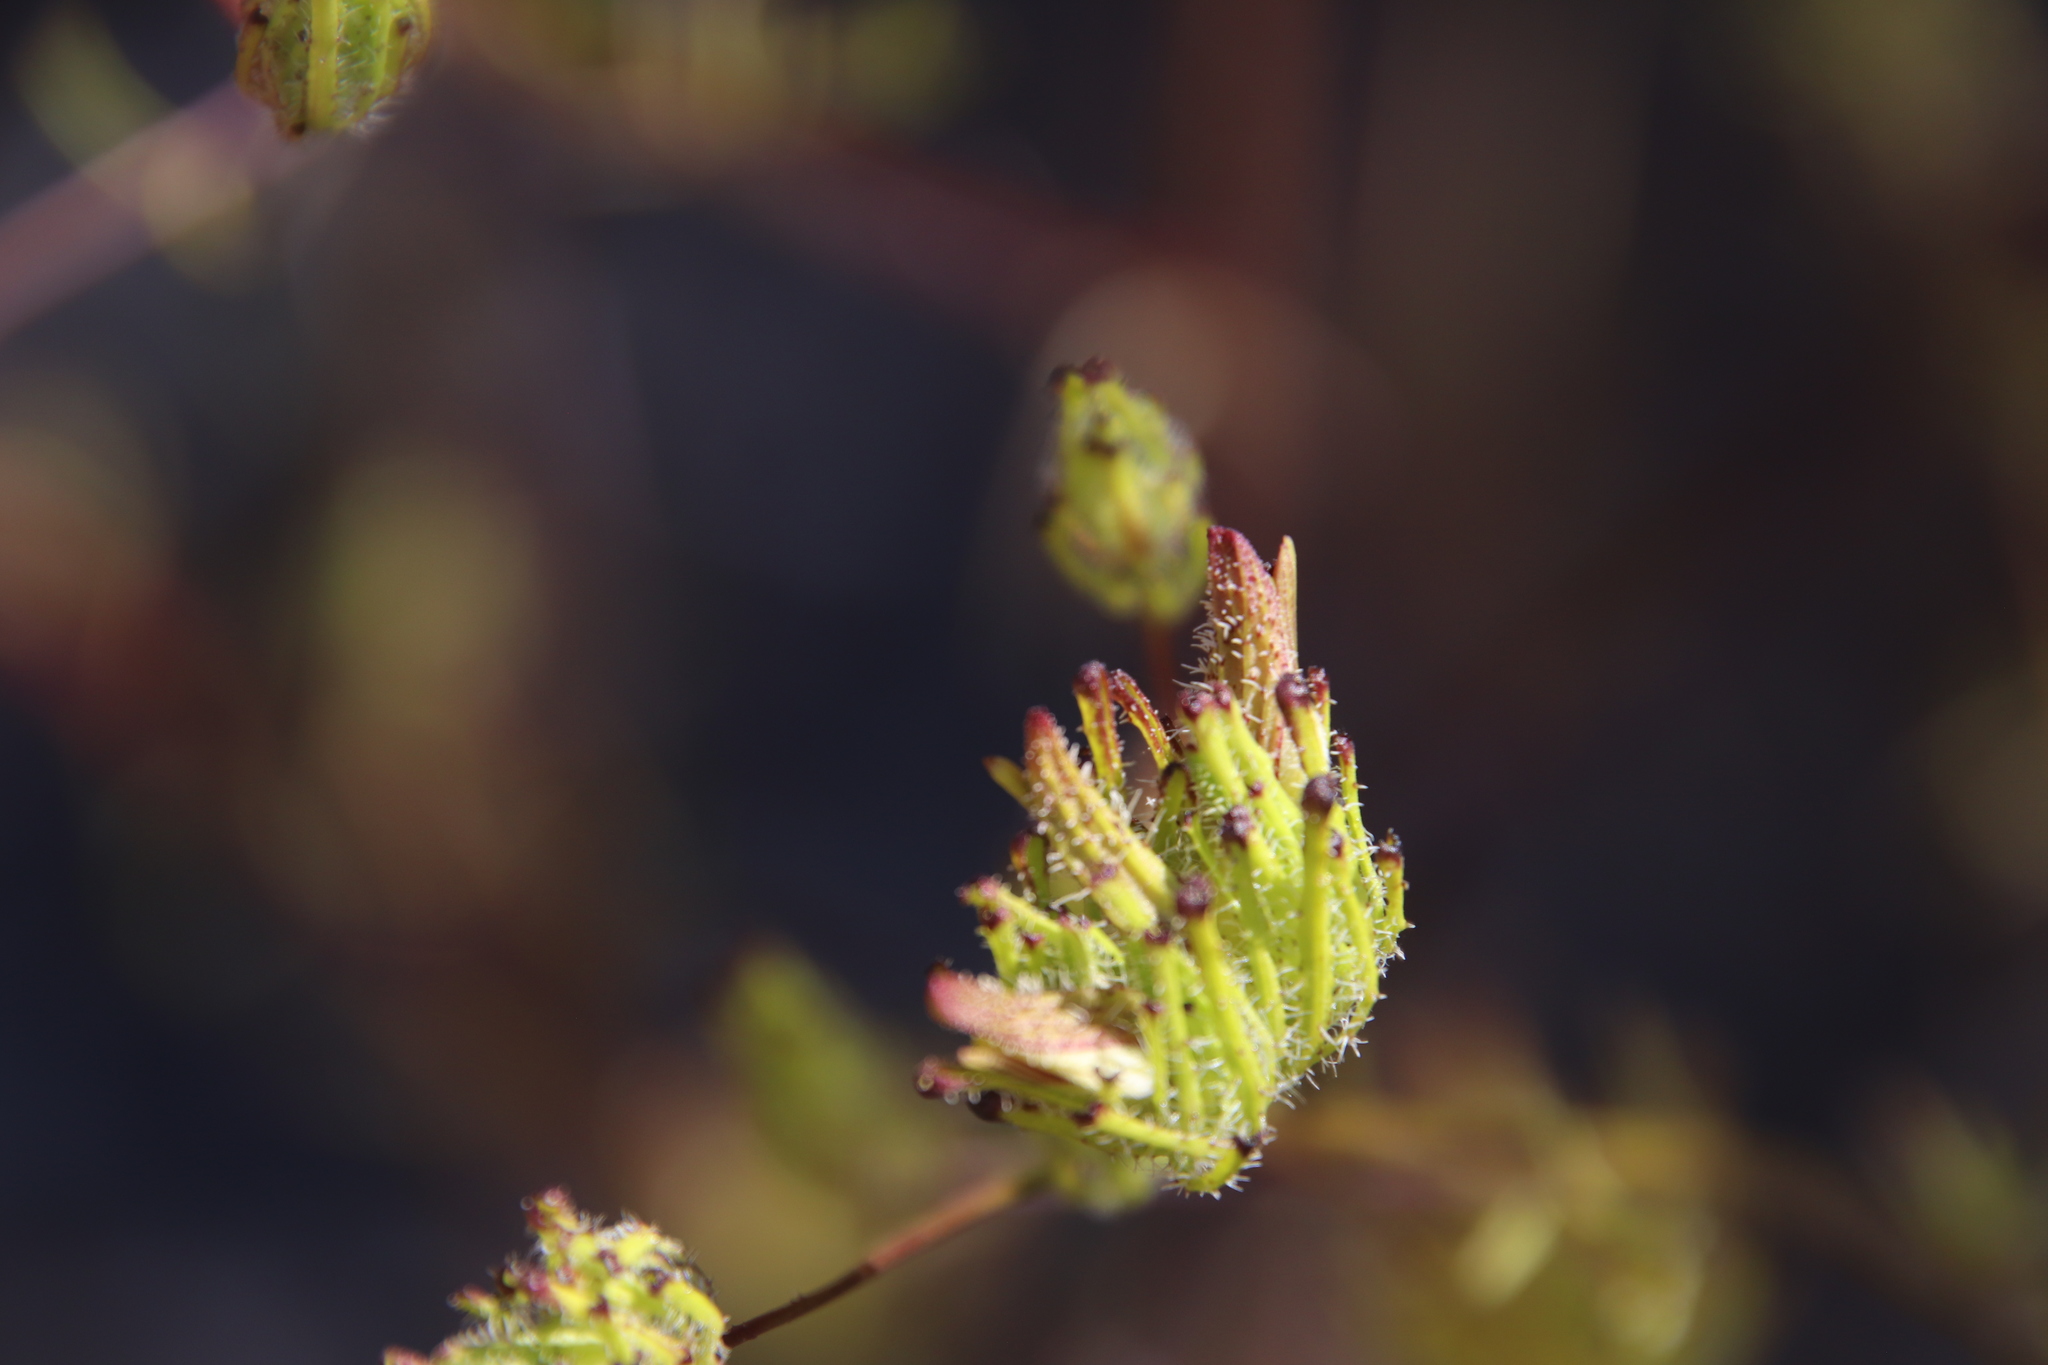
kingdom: Plantae
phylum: Tracheophyta
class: Magnoliopsida
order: Lamiales
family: Orobanchaceae
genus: Cordylanthus
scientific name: Cordylanthus rigidus
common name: Stiff-branch bird's-beak
